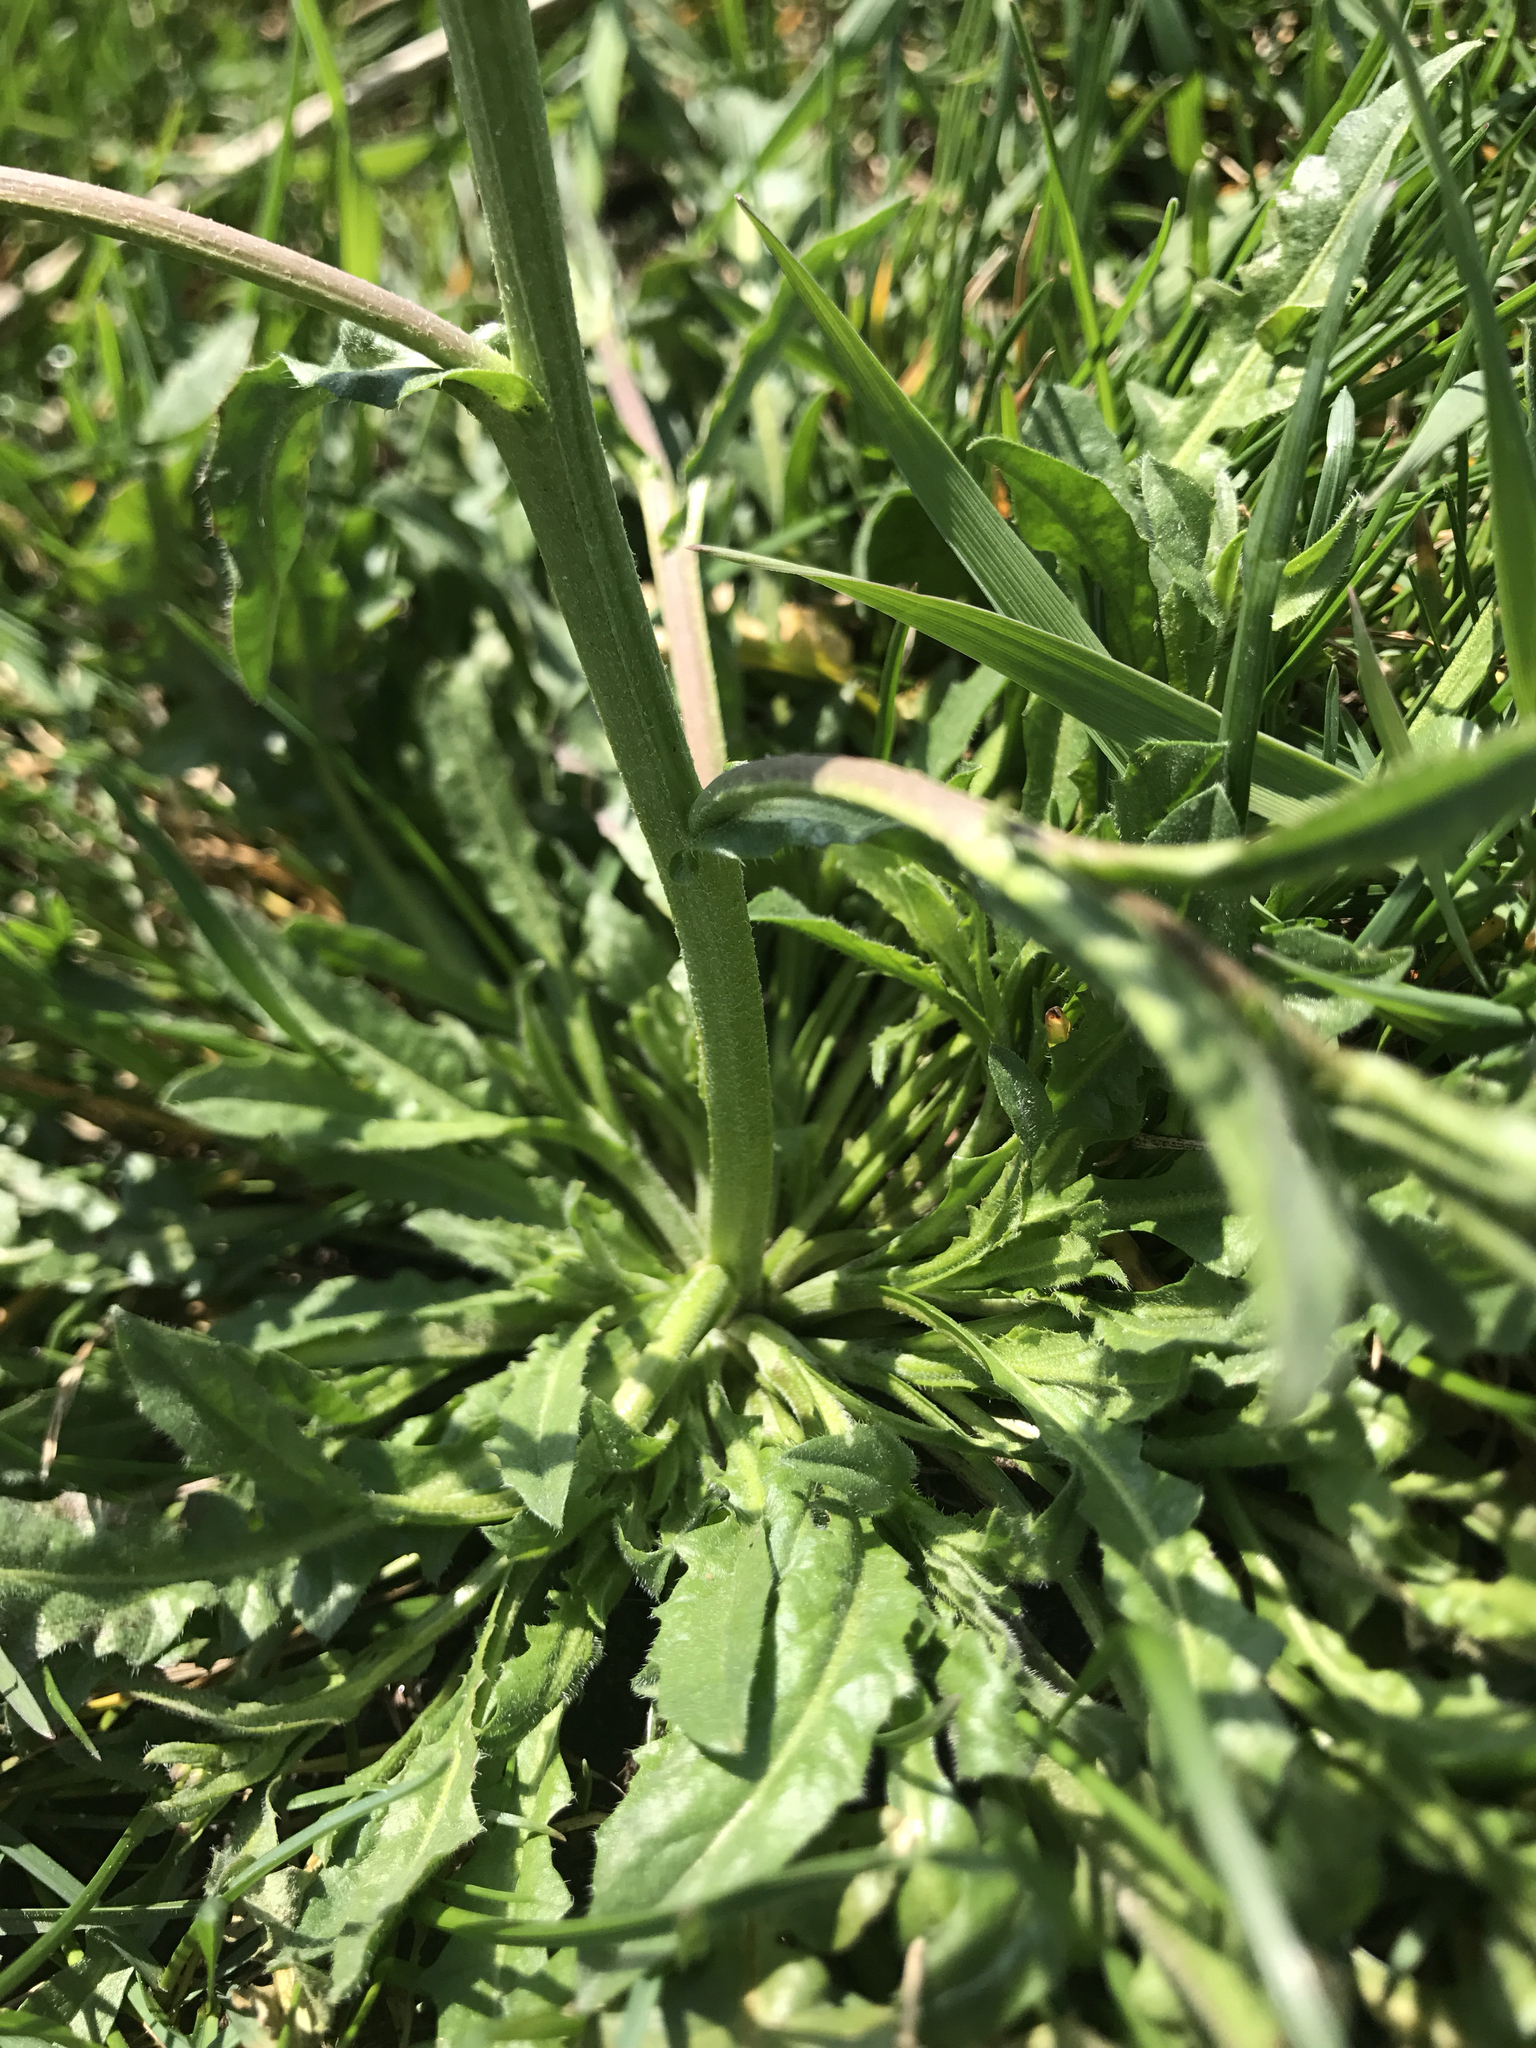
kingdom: Plantae
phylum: Tracheophyta
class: Magnoliopsida
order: Brassicales
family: Brassicaceae
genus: Capsella
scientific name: Capsella bursa-pastoris
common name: Shepherd's purse
